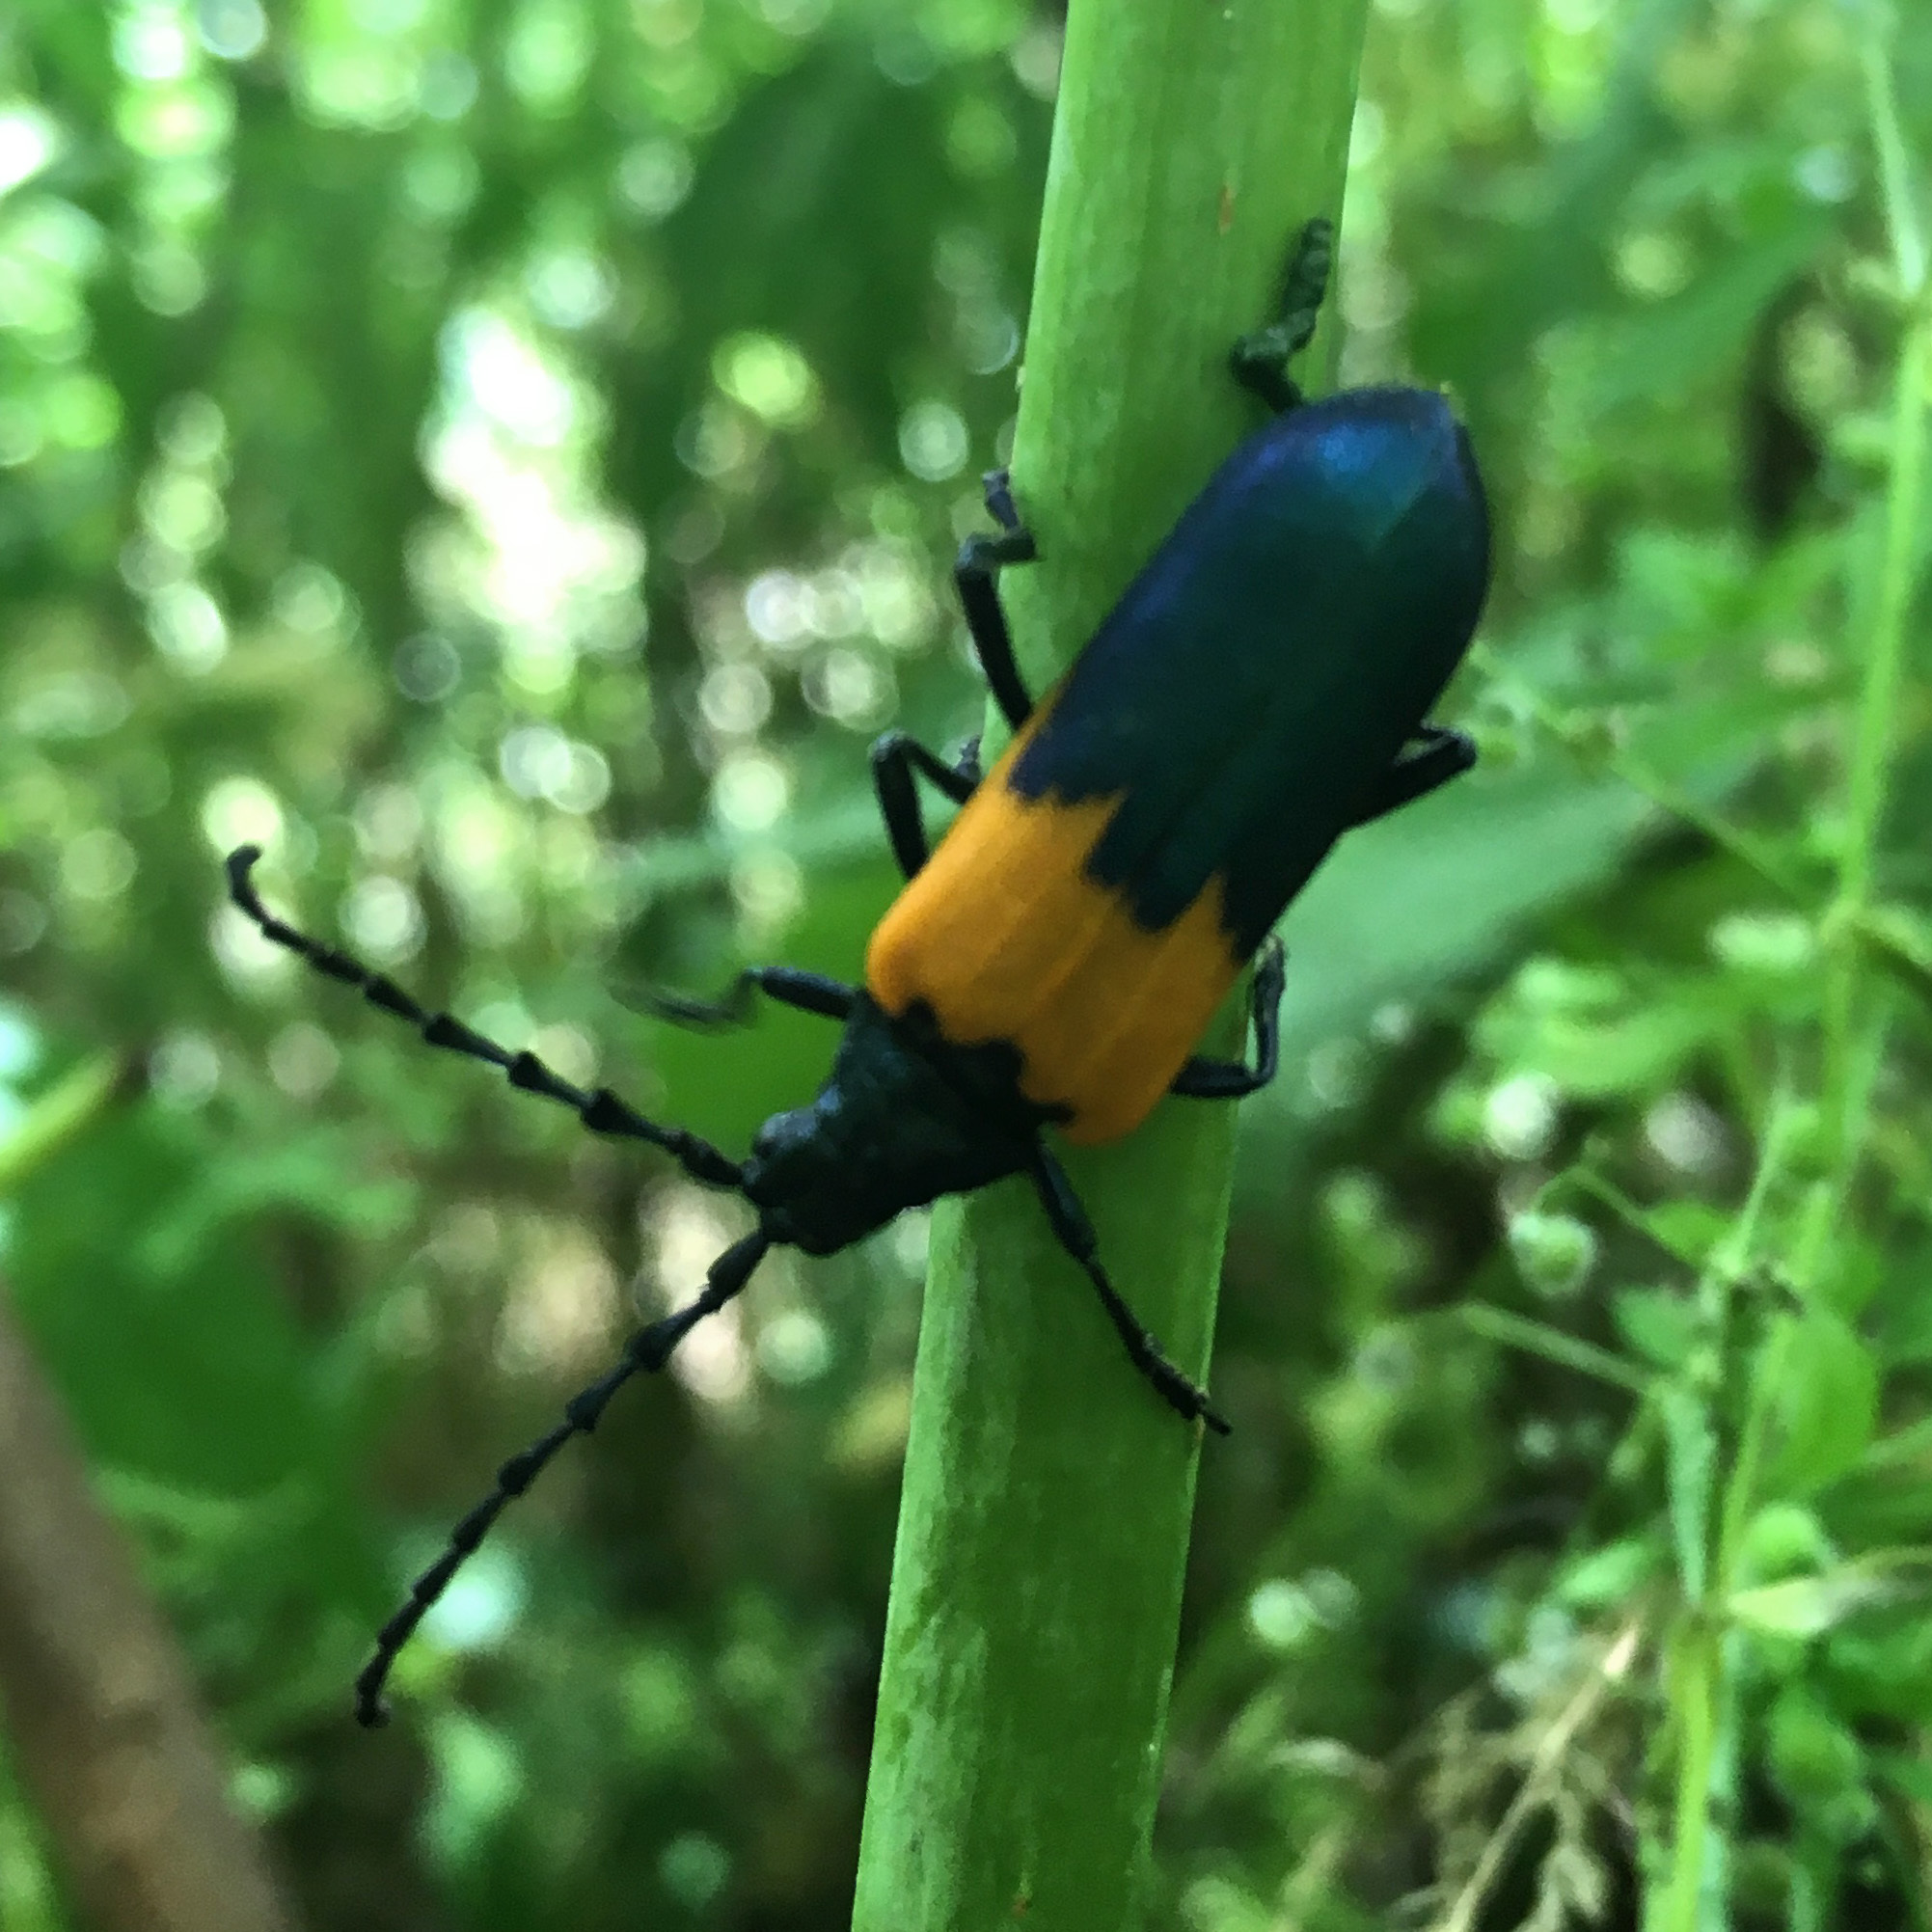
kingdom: Animalia
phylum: Arthropoda
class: Insecta
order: Coleoptera
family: Cerambycidae
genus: Desmocerus
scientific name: Desmocerus palliatus
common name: Eastern elderberry borer
